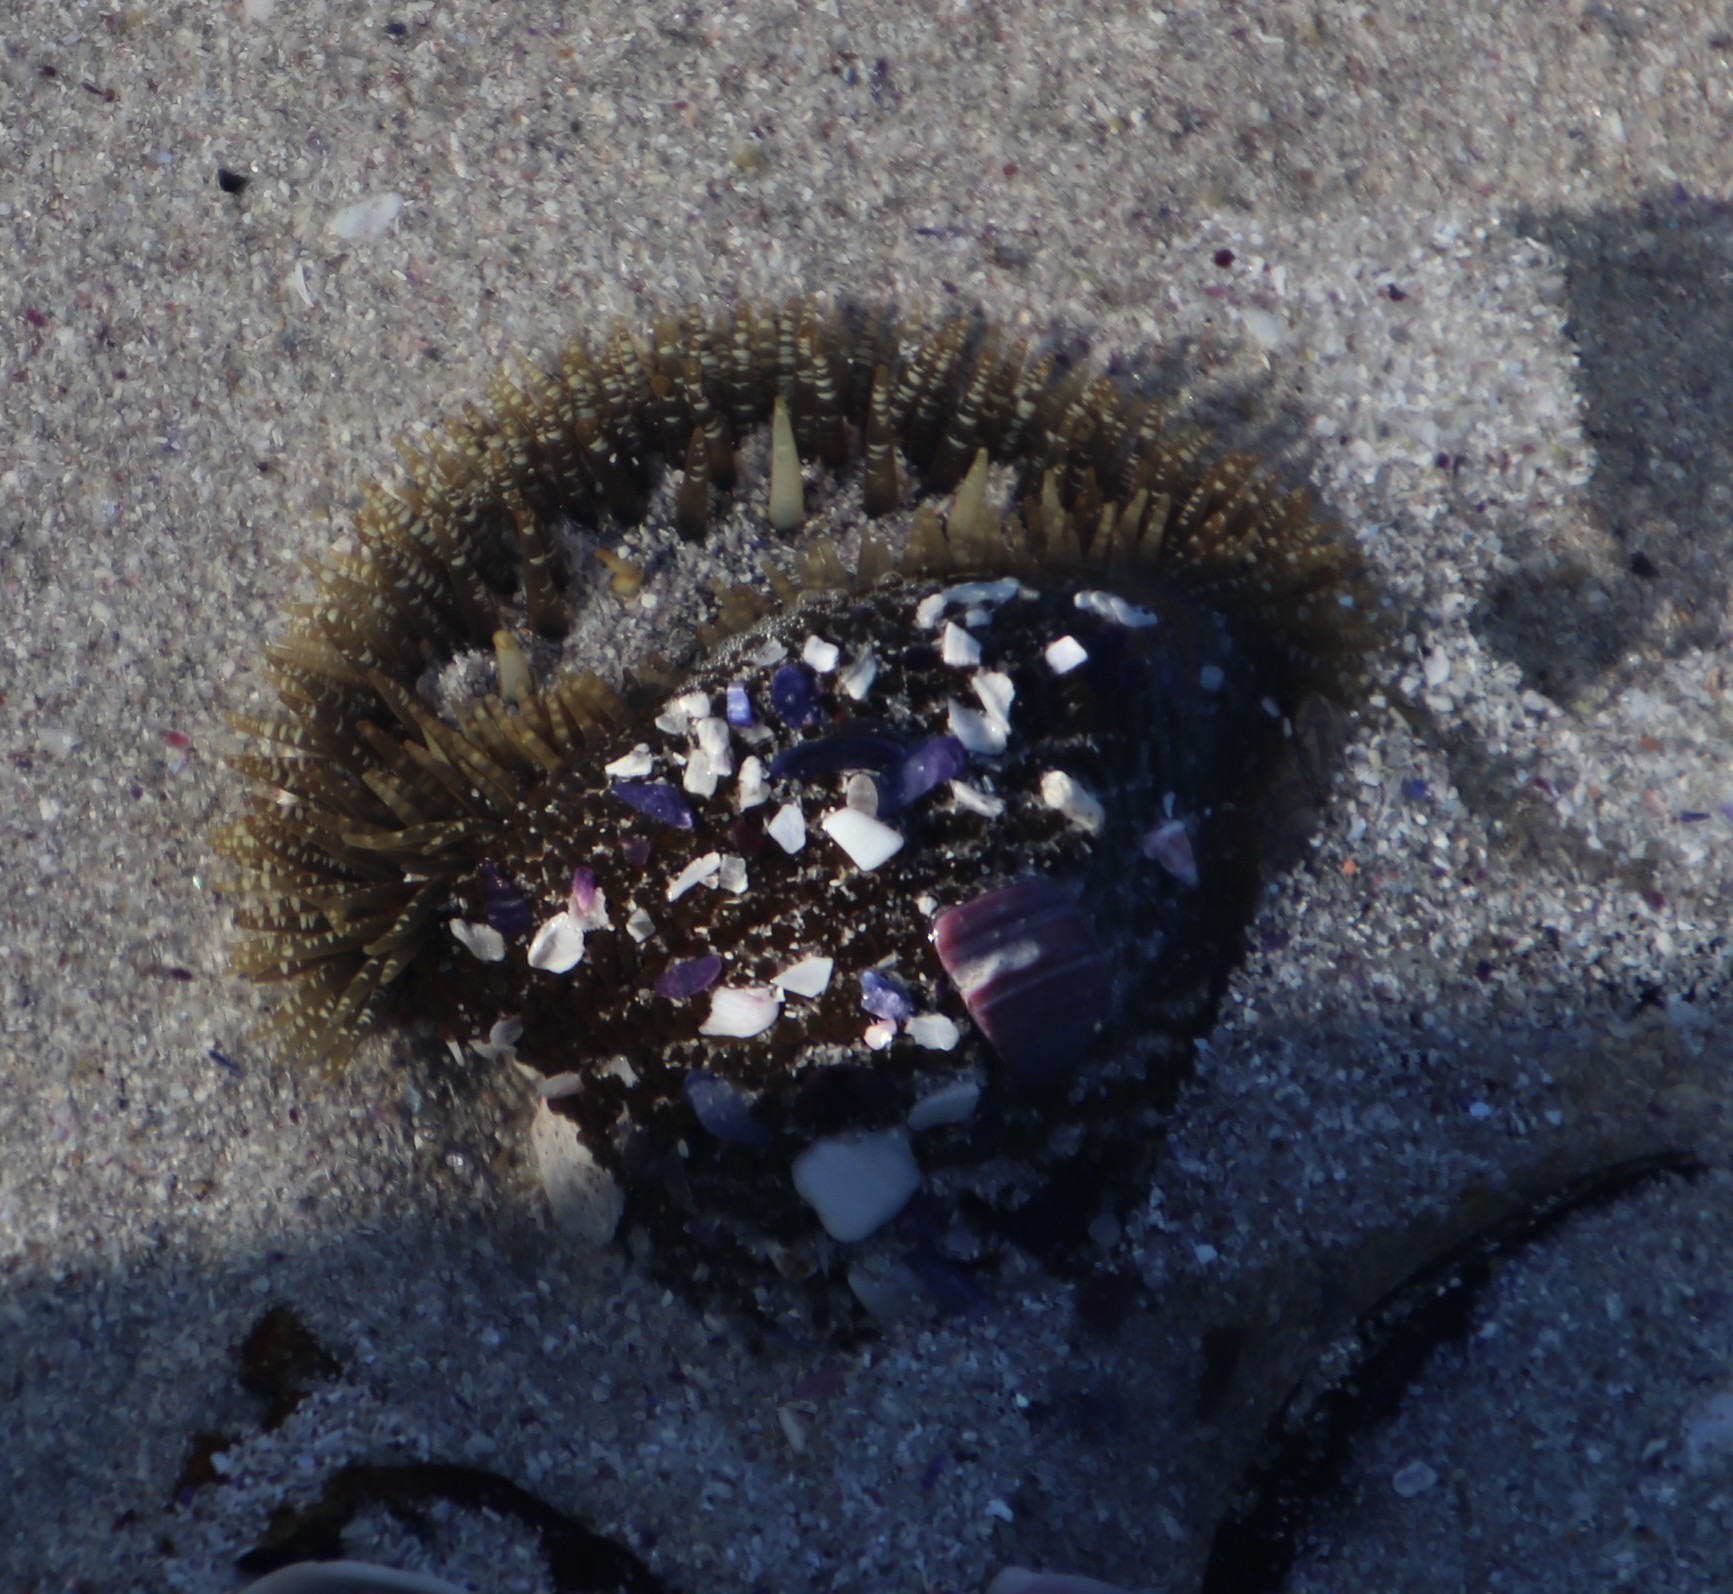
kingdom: Animalia
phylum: Cnidaria
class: Anthozoa
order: Actiniaria
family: Actiniidae
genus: Bunodactis
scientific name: Bunodactis reynaudi
